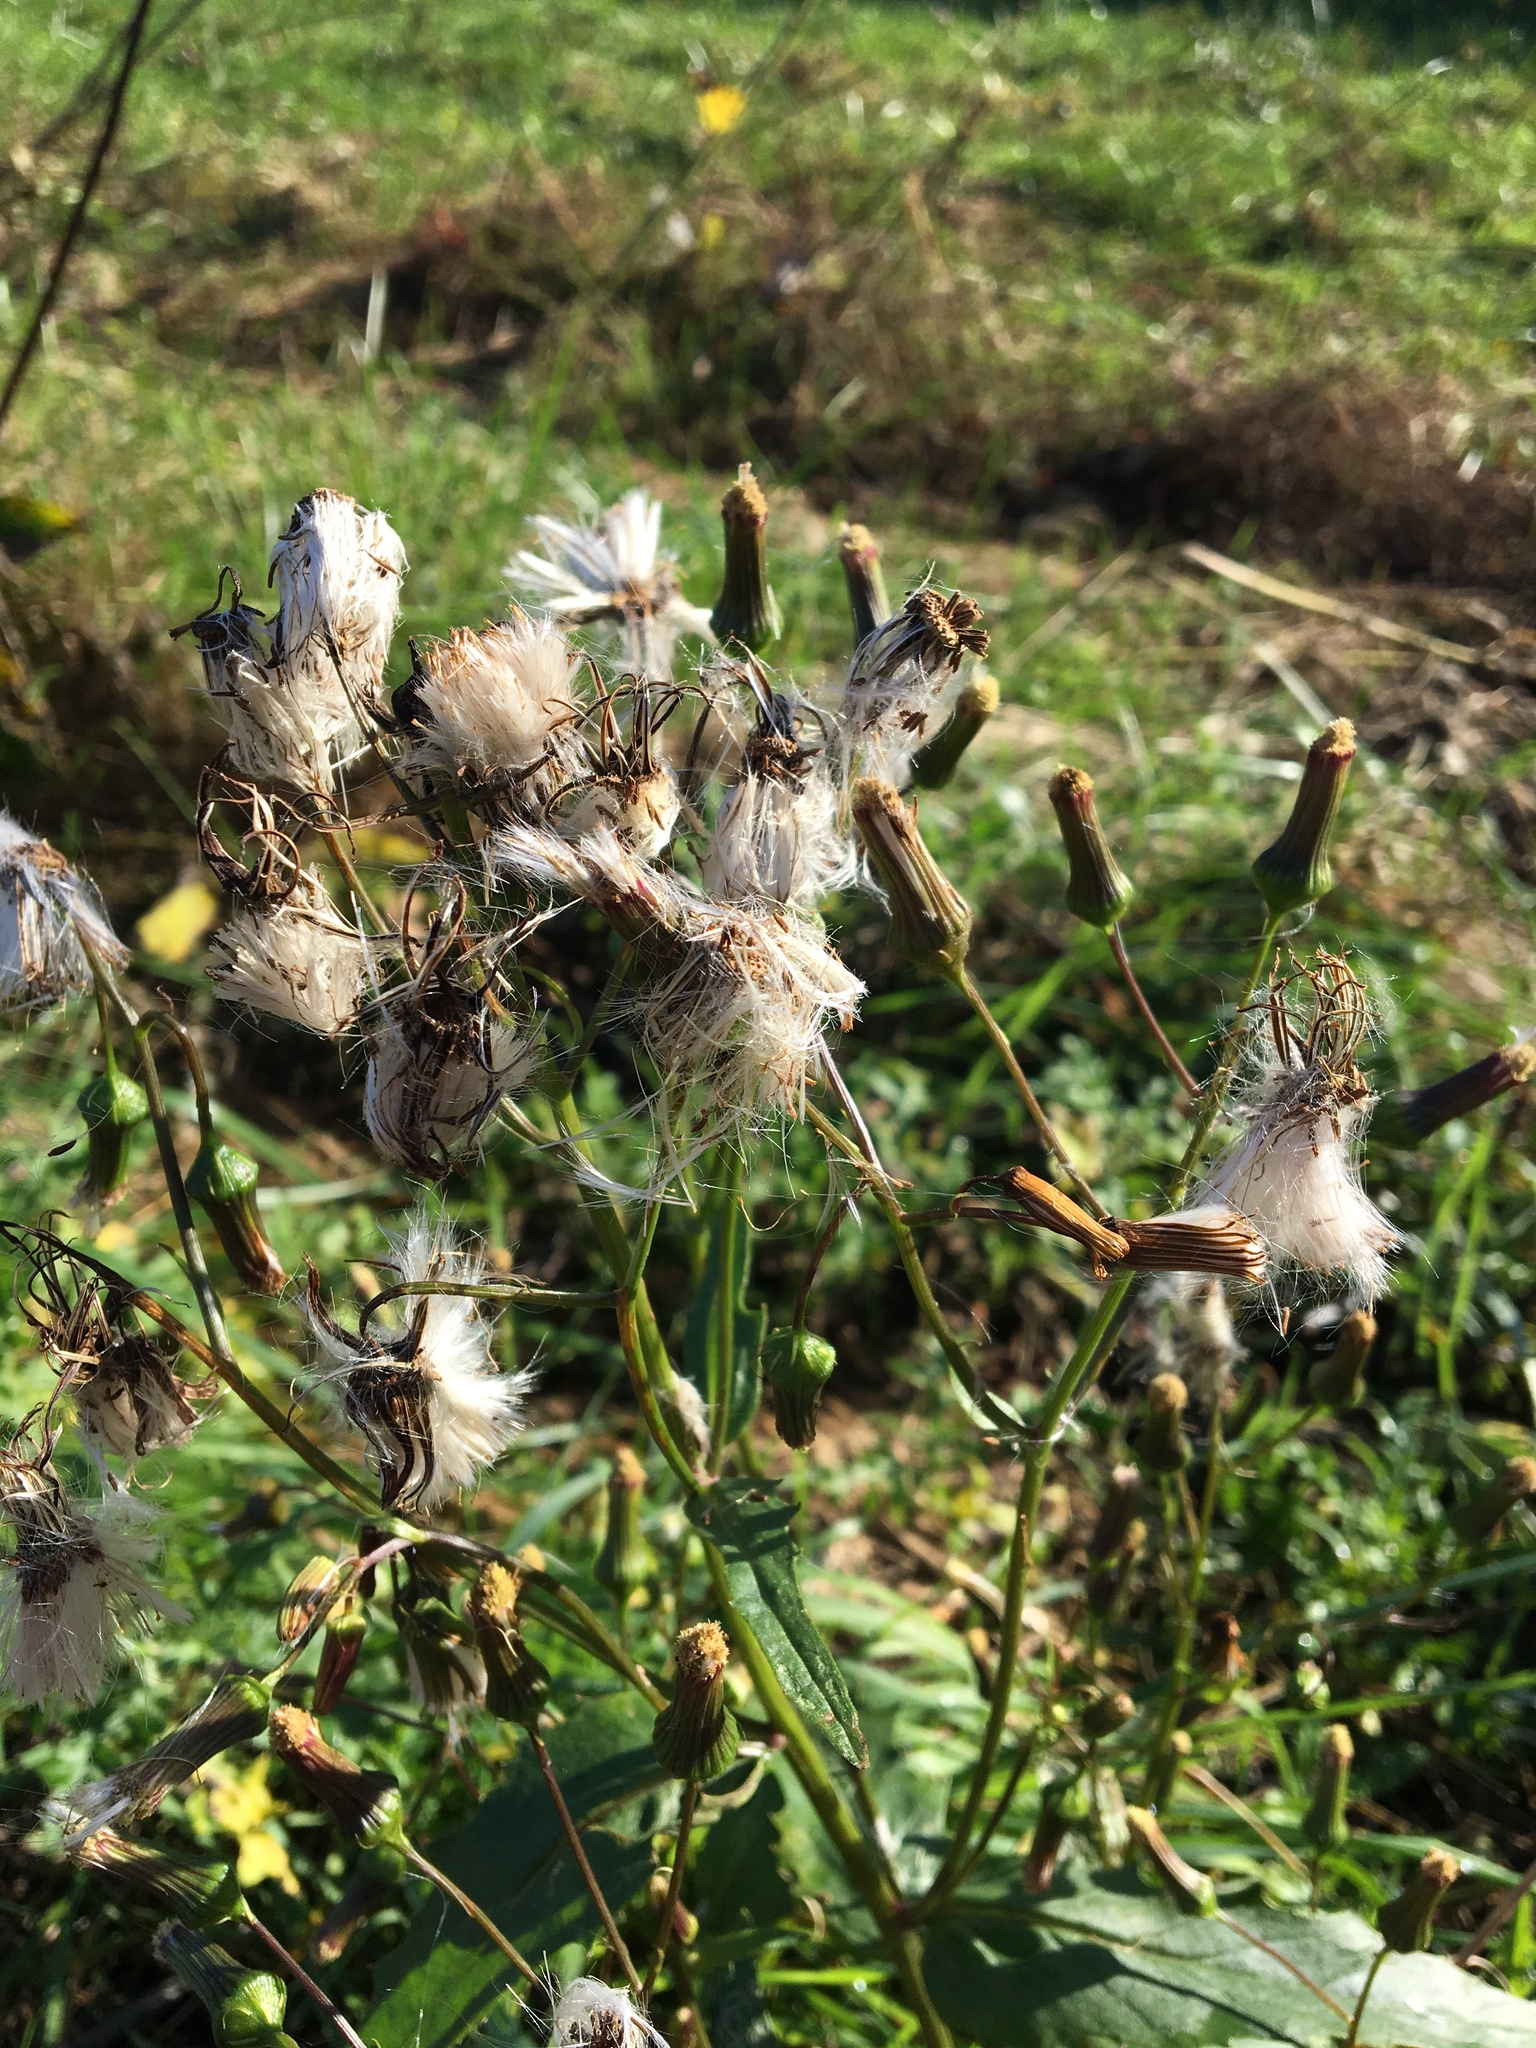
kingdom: Plantae
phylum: Tracheophyta
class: Magnoliopsida
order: Asterales
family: Asteraceae
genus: Erechtites
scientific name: Erechtites hieraciifolius
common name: American burnweed
